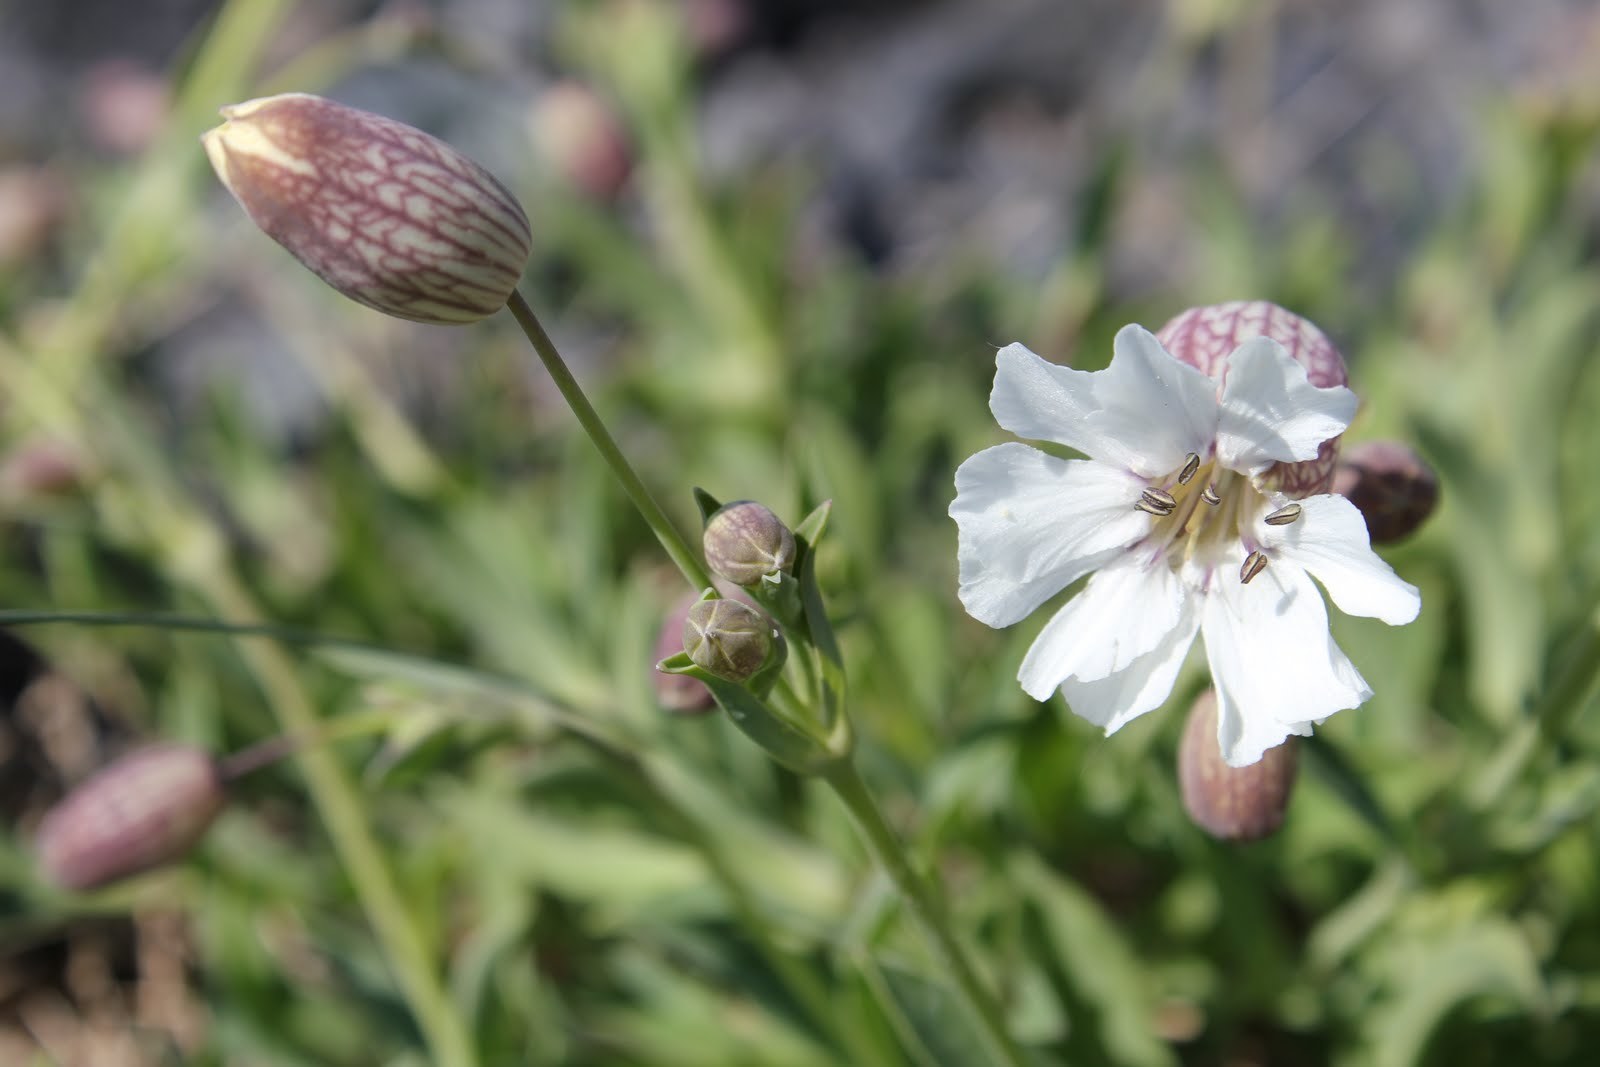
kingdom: Plantae
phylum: Tracheophyta
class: Magnoliopsida
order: Caryophyllales
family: Caryophyllaceae
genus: Silene
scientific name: Silene uniflora
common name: Sea campion
